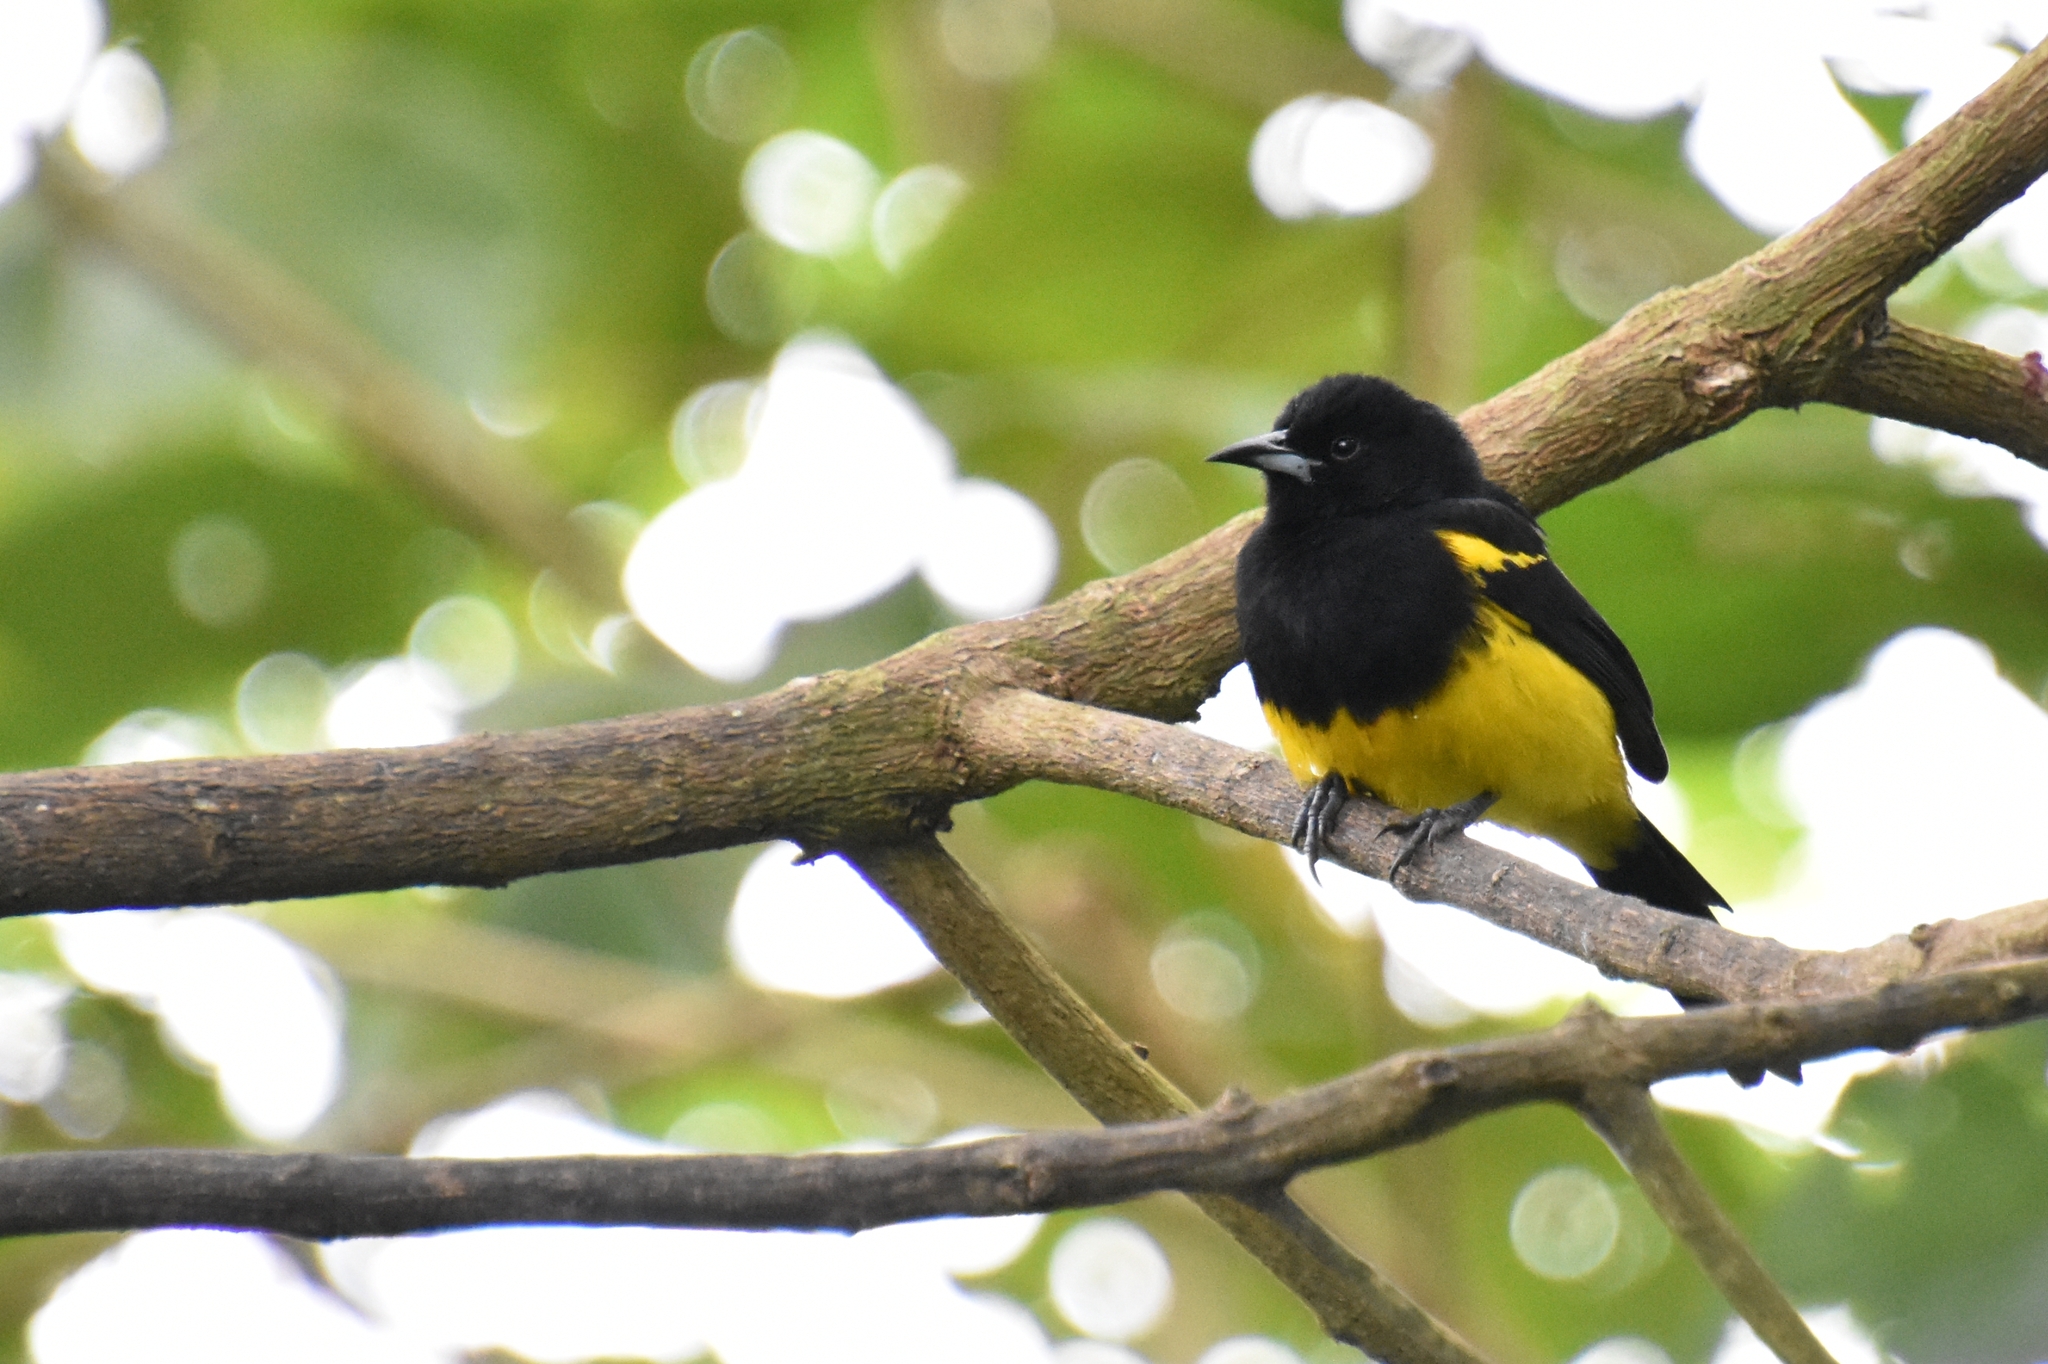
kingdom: Animalia
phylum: Chordata
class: Aves
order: Passeriformes
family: Icteridae
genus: Icterus
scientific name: Icterus prosthemelas
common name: Black-cowled oriole
